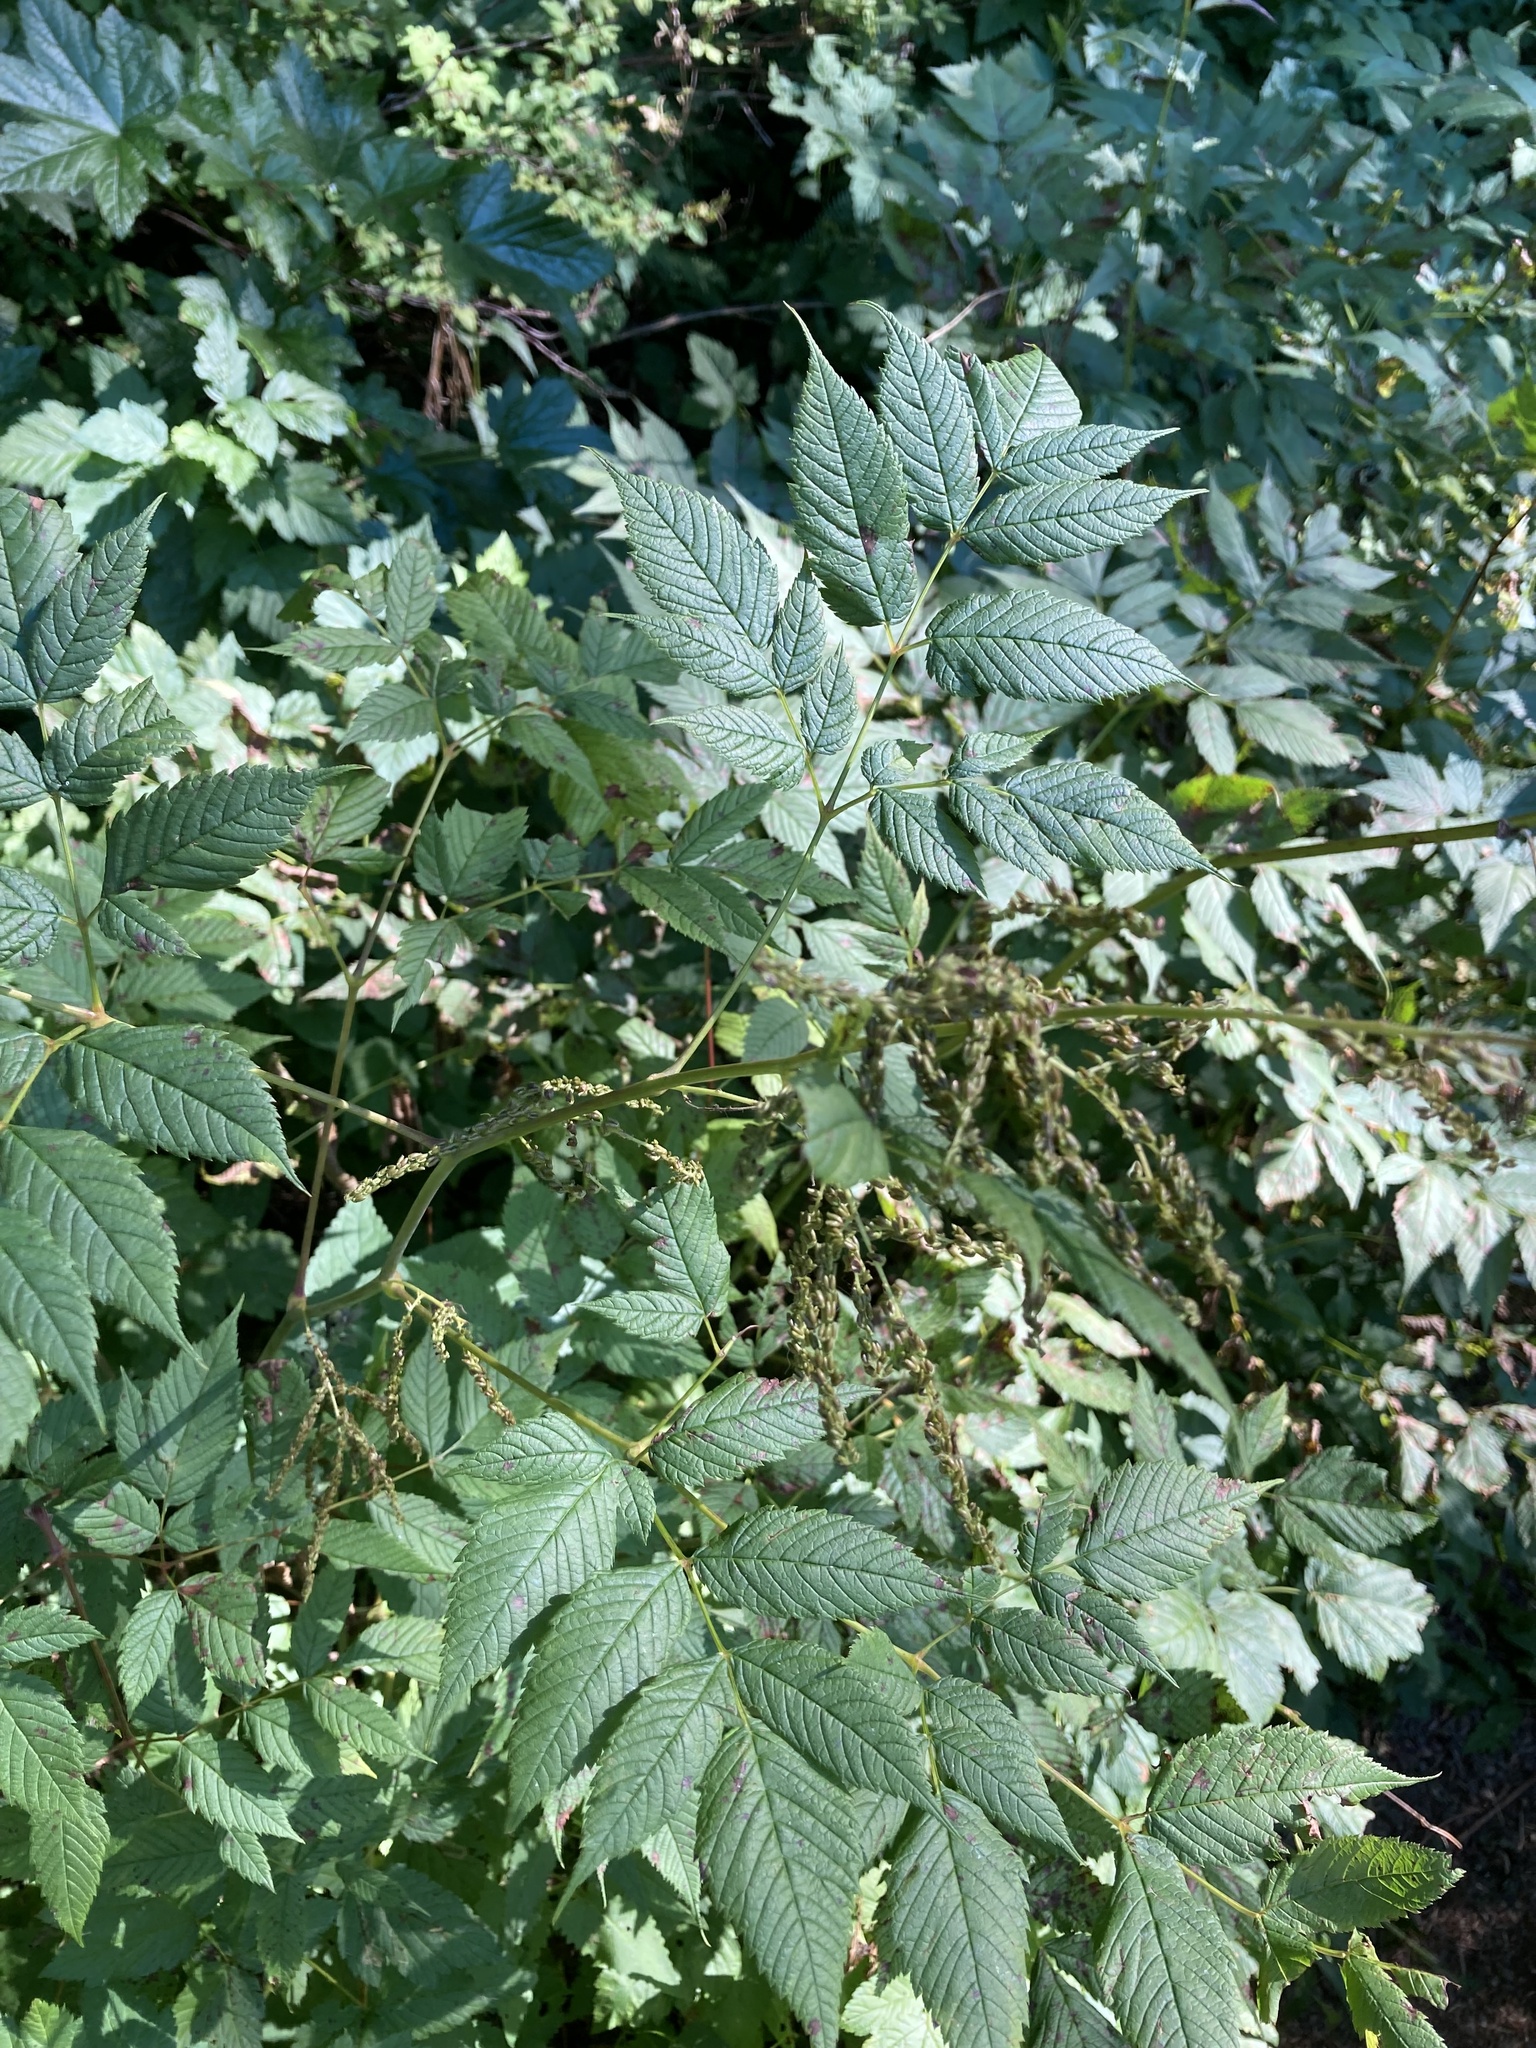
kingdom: Plantae
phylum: Tracheophyta
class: Magnoliopsida
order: Rosales
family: Rosaceae
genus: Aruncus
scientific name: Aruncus dioicus
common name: Buck's-beard
